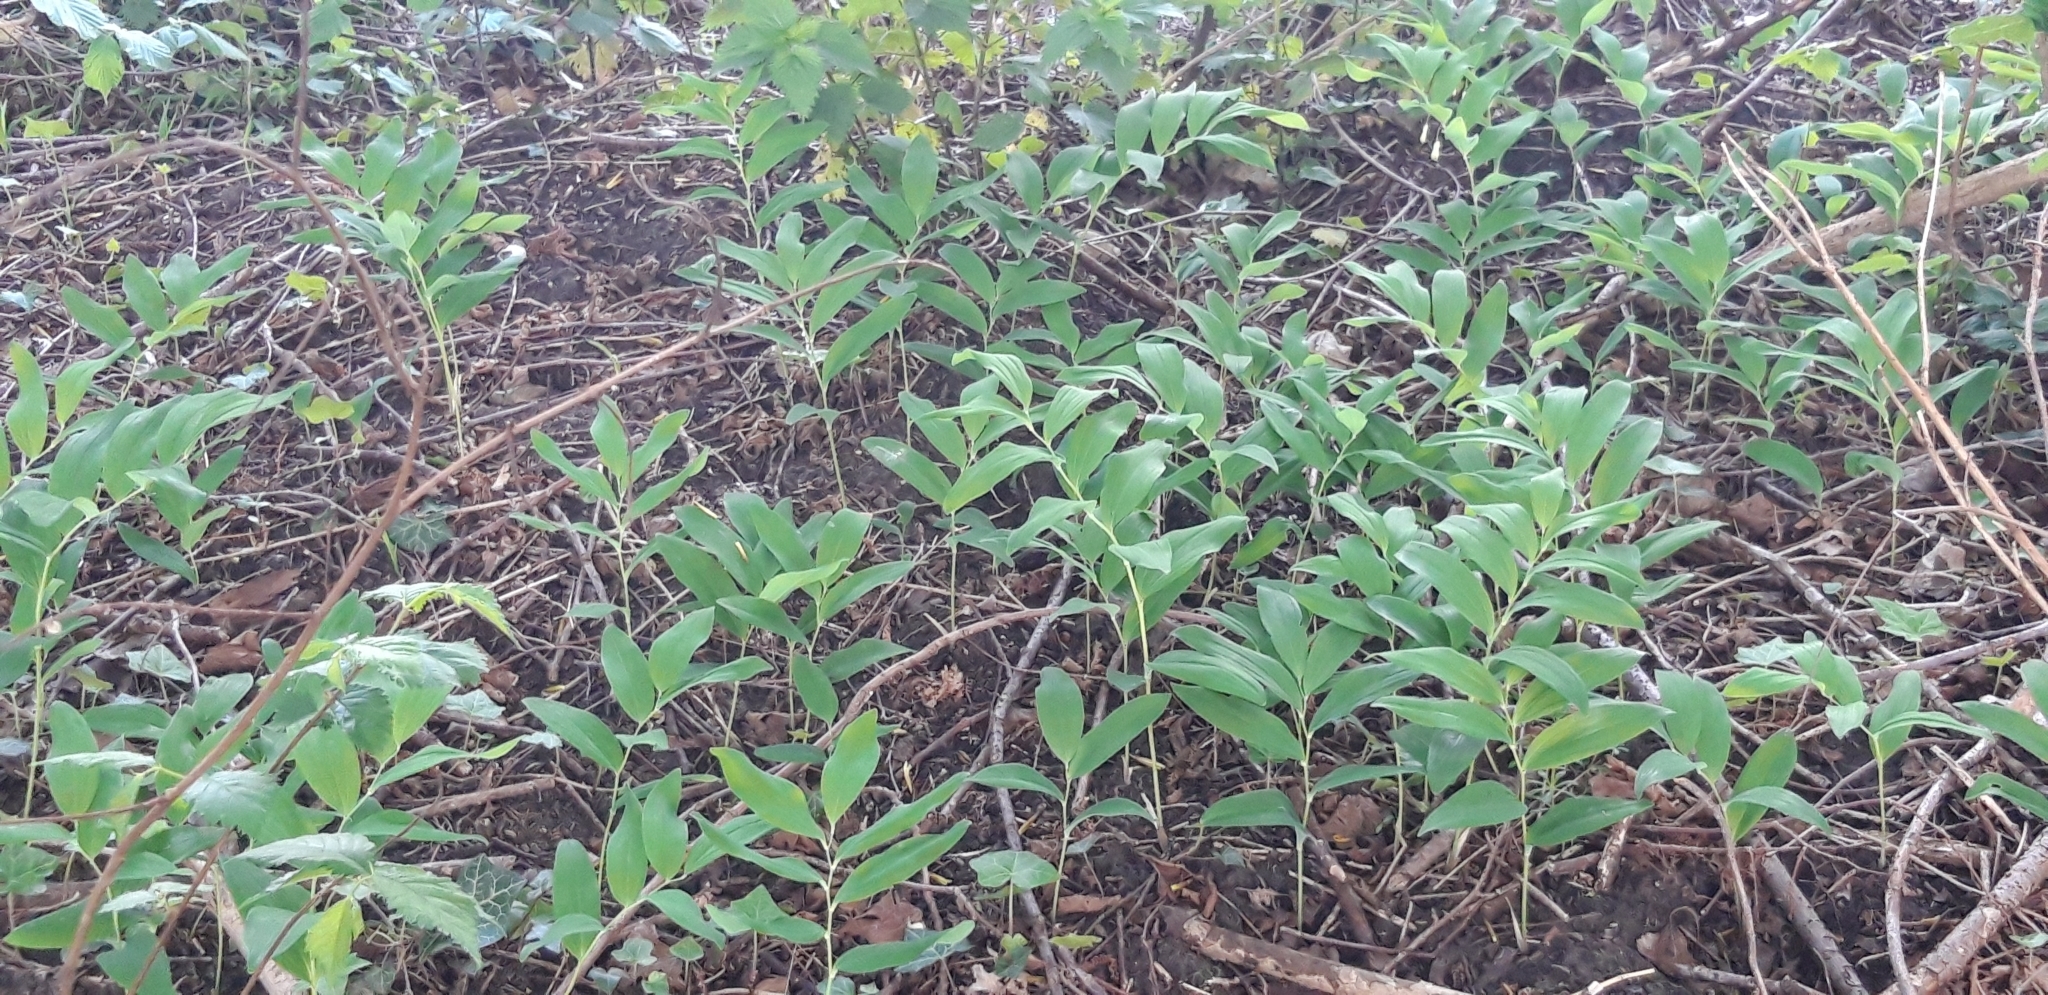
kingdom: Plantae
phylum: Tracheophyta
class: Liliopsida
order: Asparagales
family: Asparagaceae
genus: Polygonatum
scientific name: Polygonatum multiflorum
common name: Solomon's-seal
